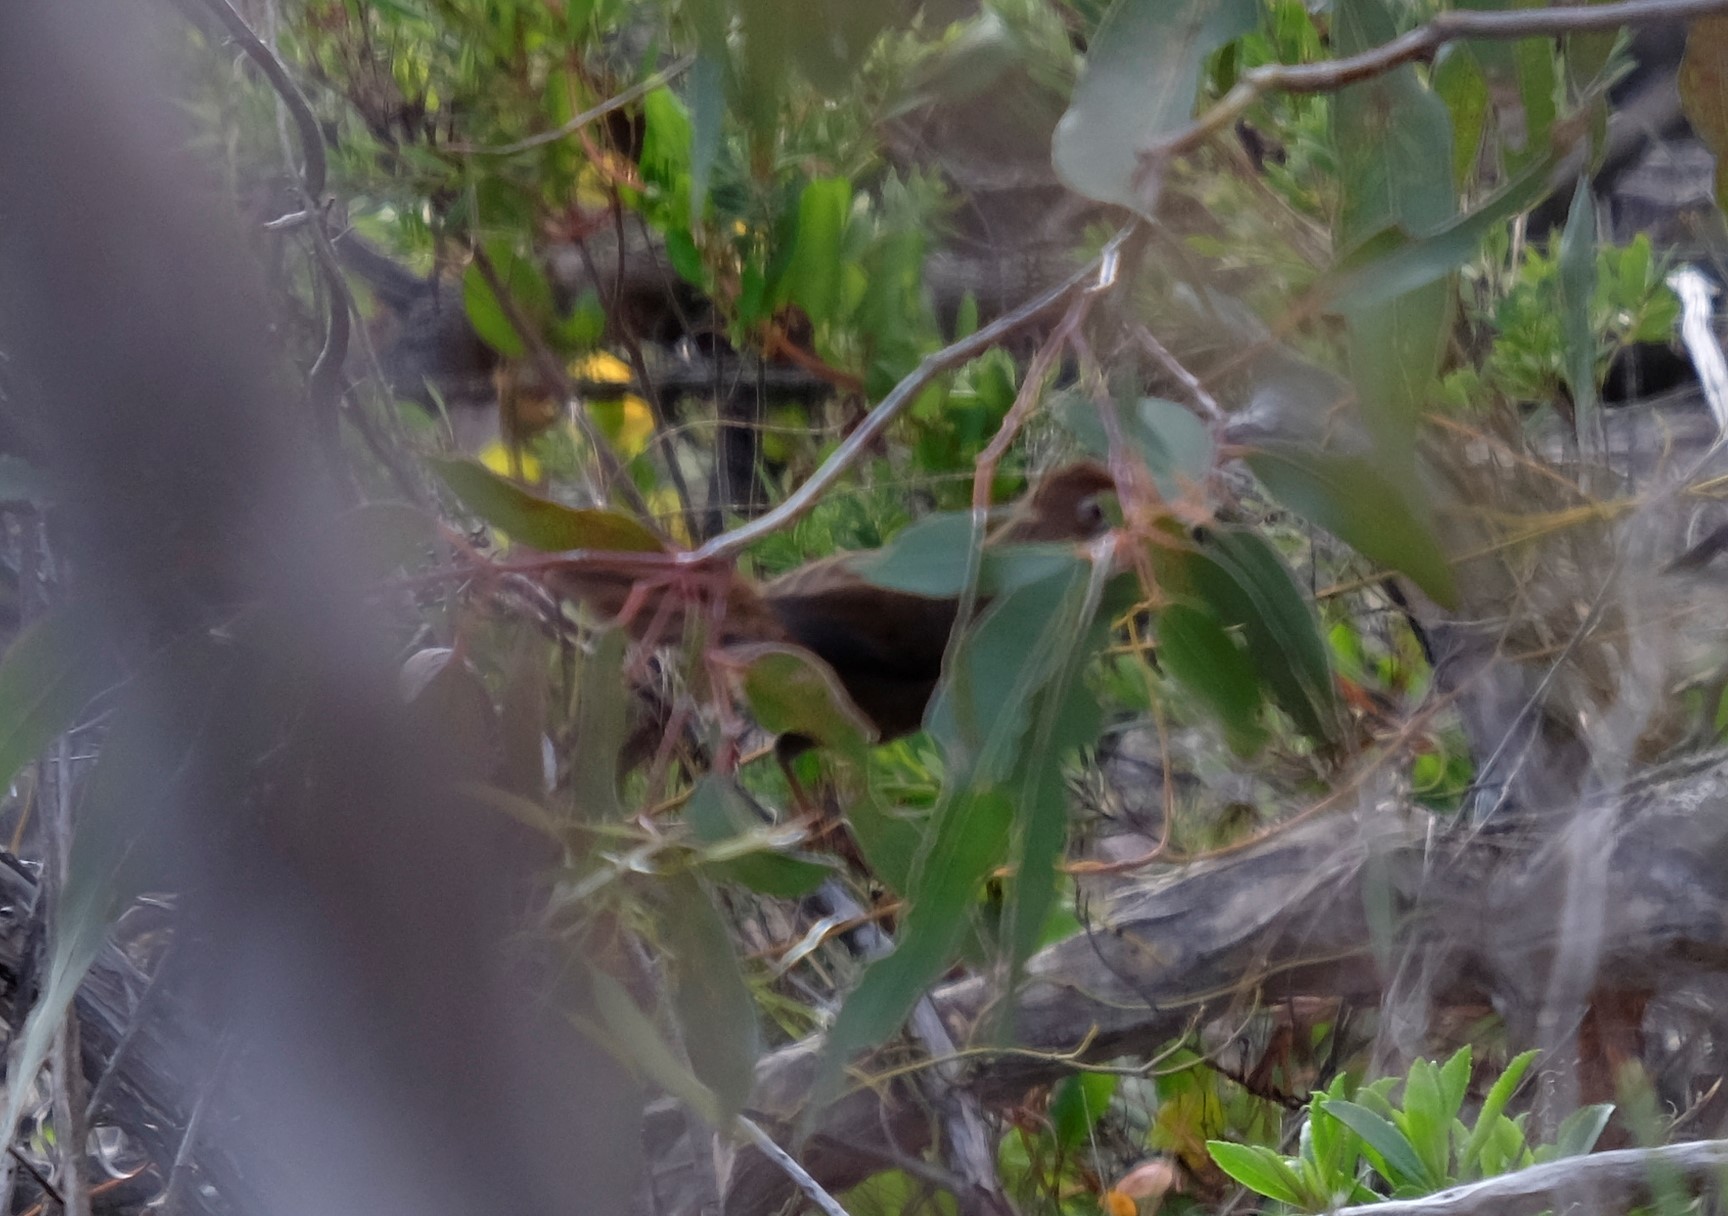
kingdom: Animalia
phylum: Chordata
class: Aves
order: Passeriformes
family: Dasyornithidae
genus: Dasyornis
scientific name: Dasyornis broadbenti
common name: Rufous bristlebird
